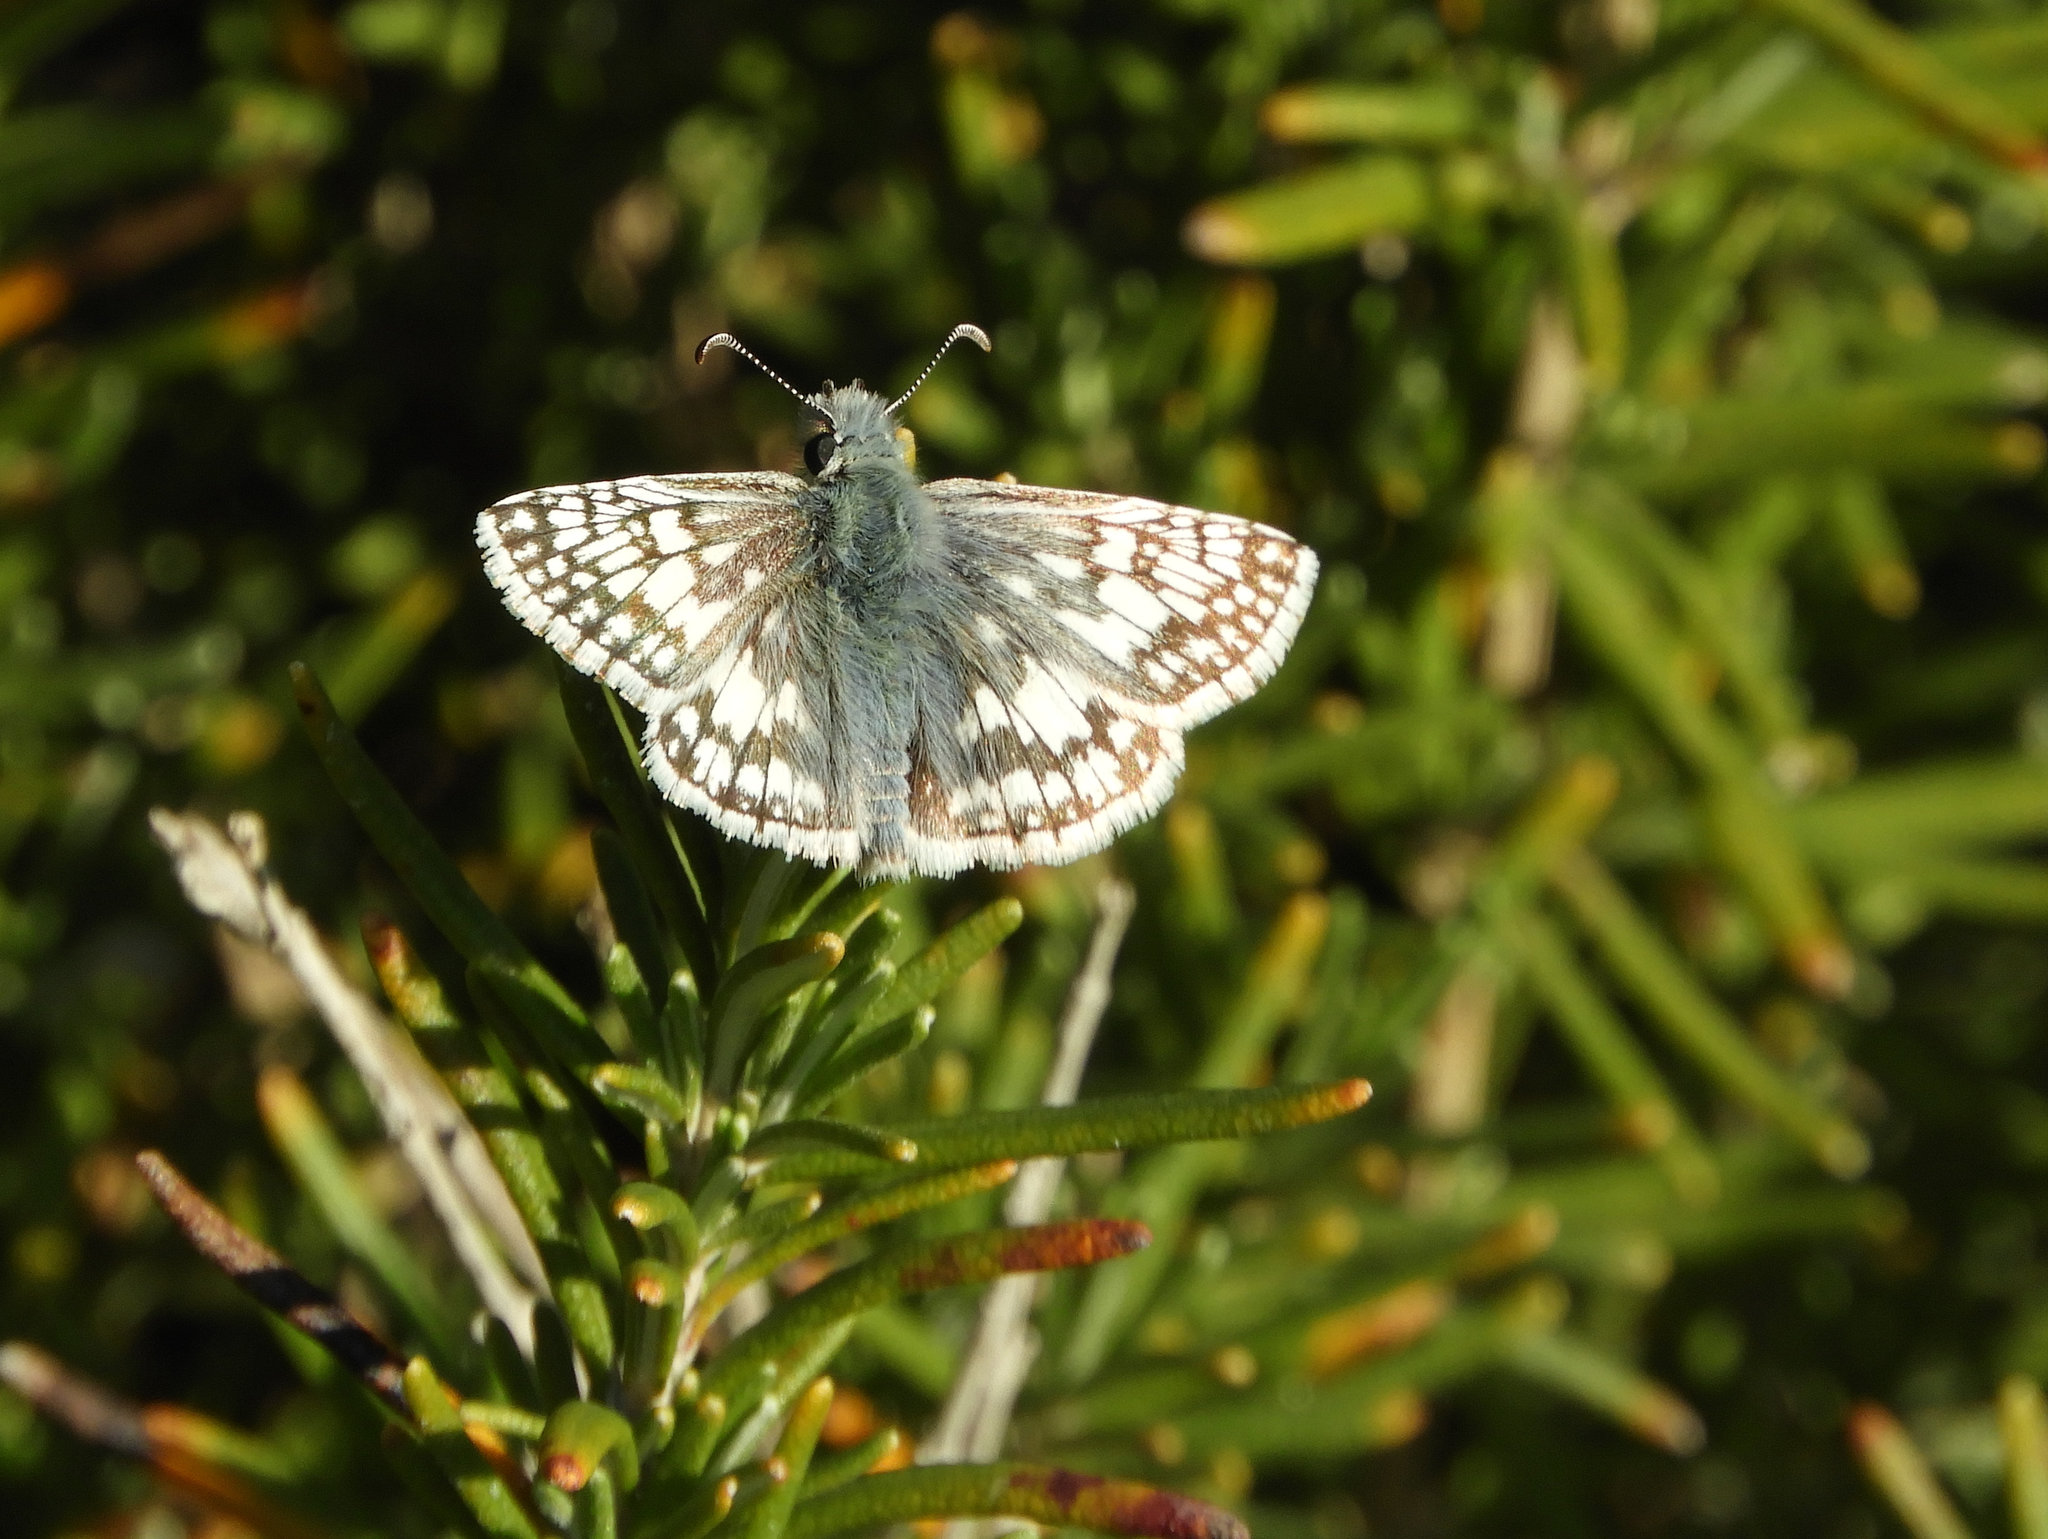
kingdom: Animalia
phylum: Arthropoda
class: Insecta
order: Lepidoptera
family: Hesperiidae
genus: Burnsius
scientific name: Burnsius communis
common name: Common checkered-skipper
